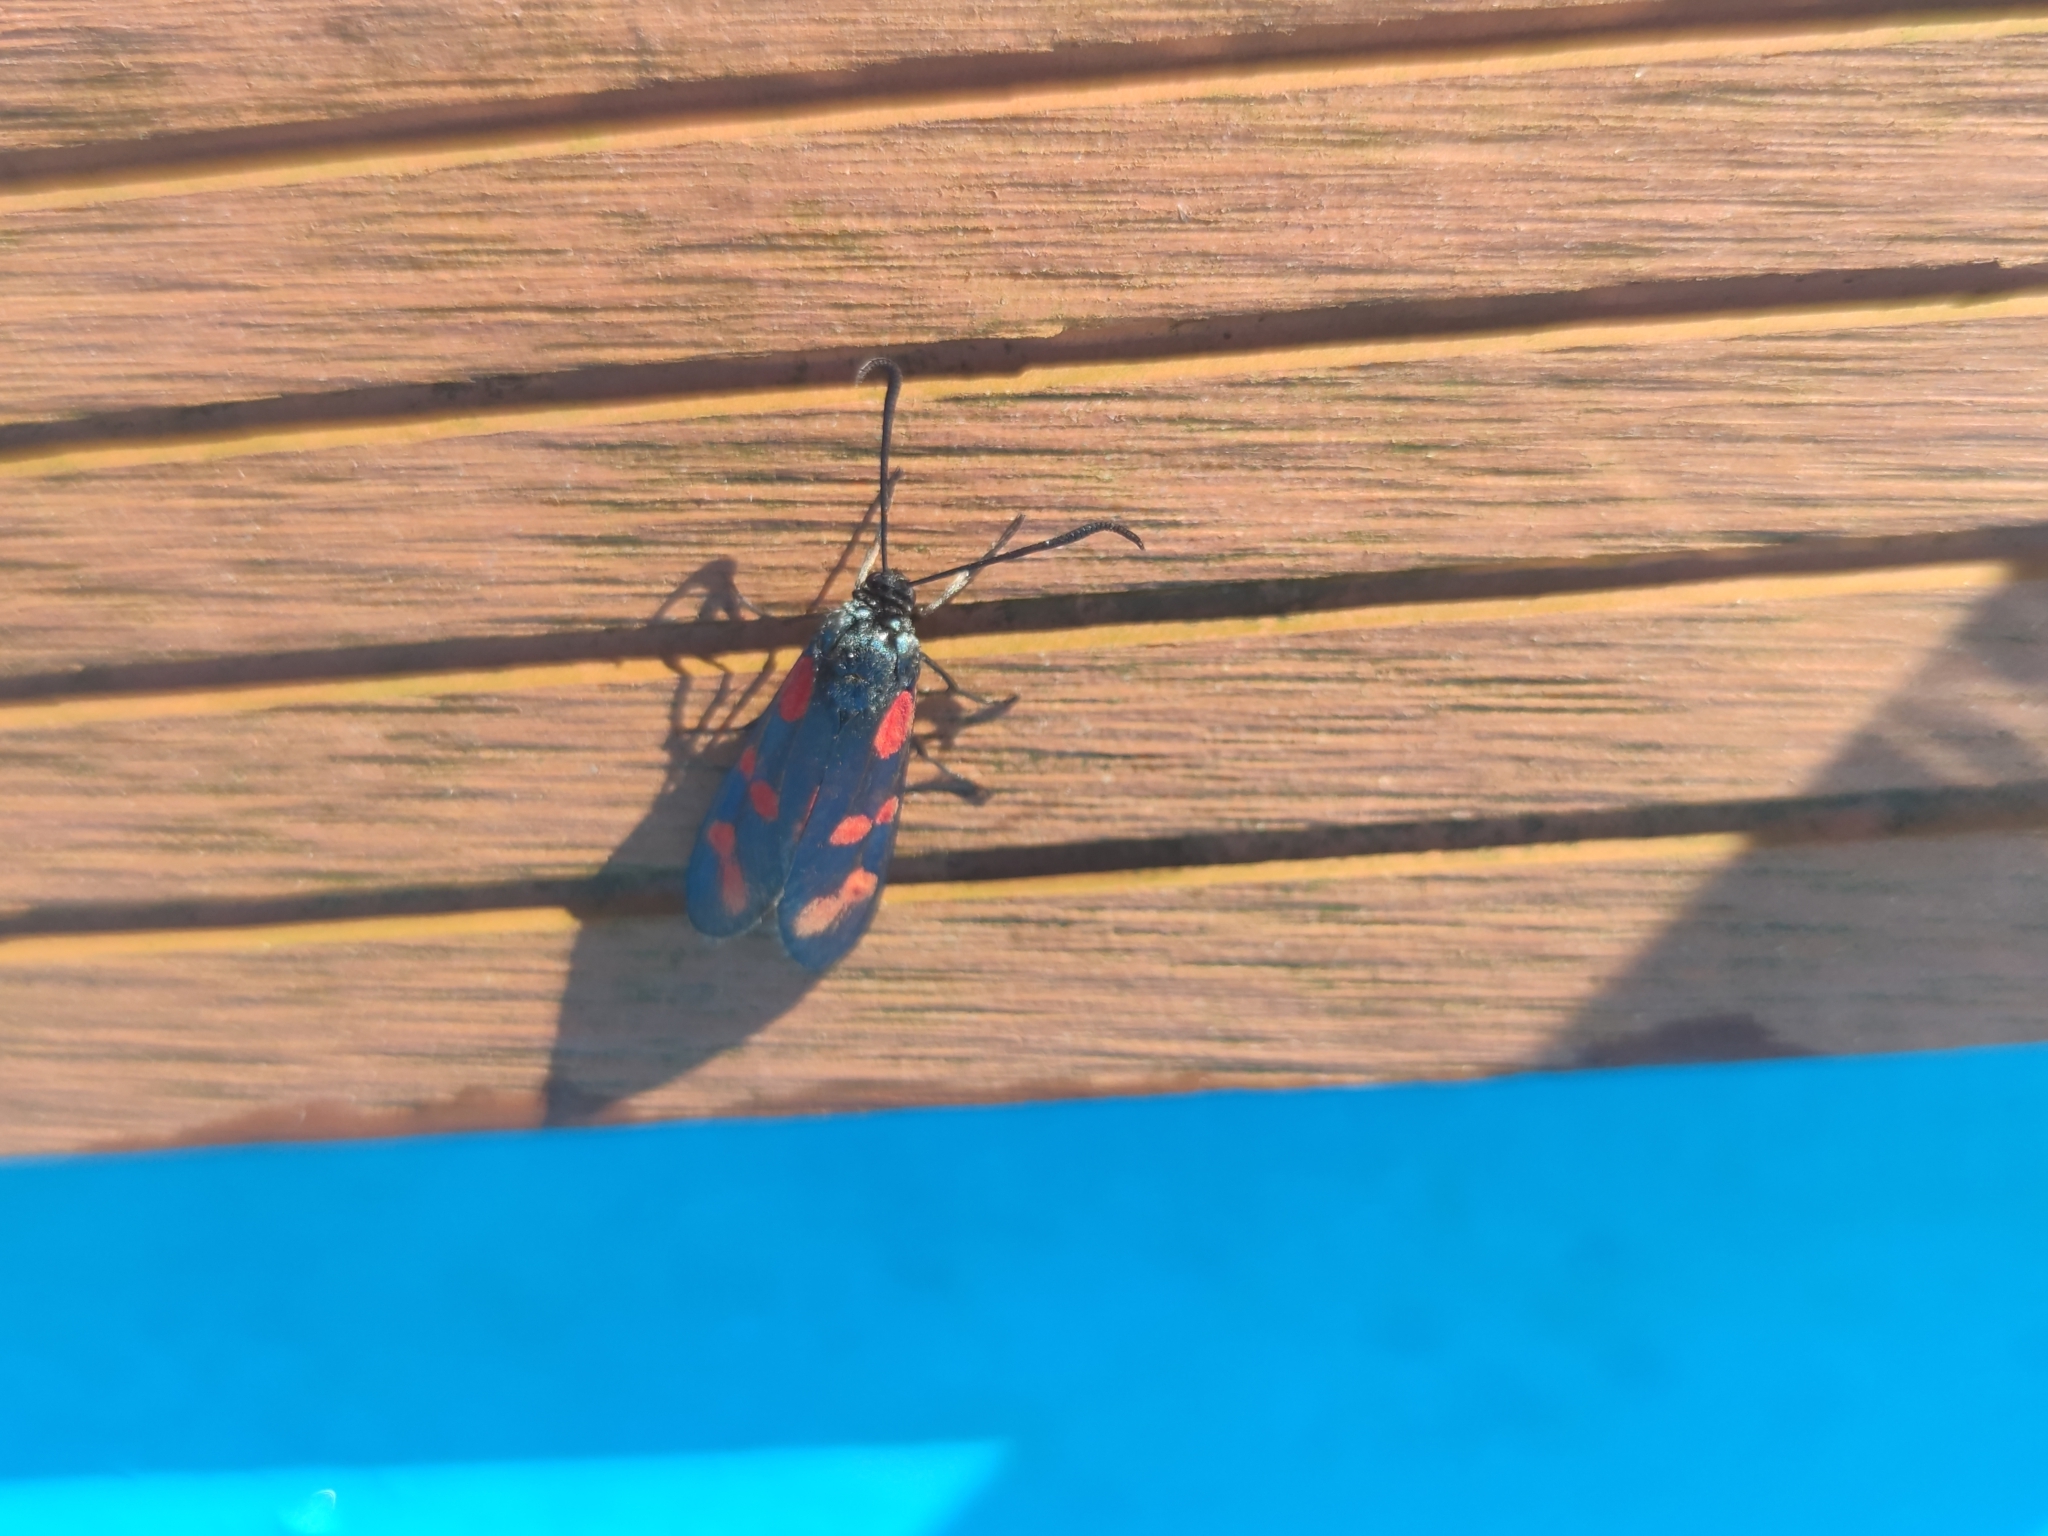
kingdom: Animalia
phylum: Arthropoda
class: Insecta
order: Lepidoptera
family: Zygaenidae
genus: Zygaena
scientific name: Zygaena filipendulae
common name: Six-spot burnet
